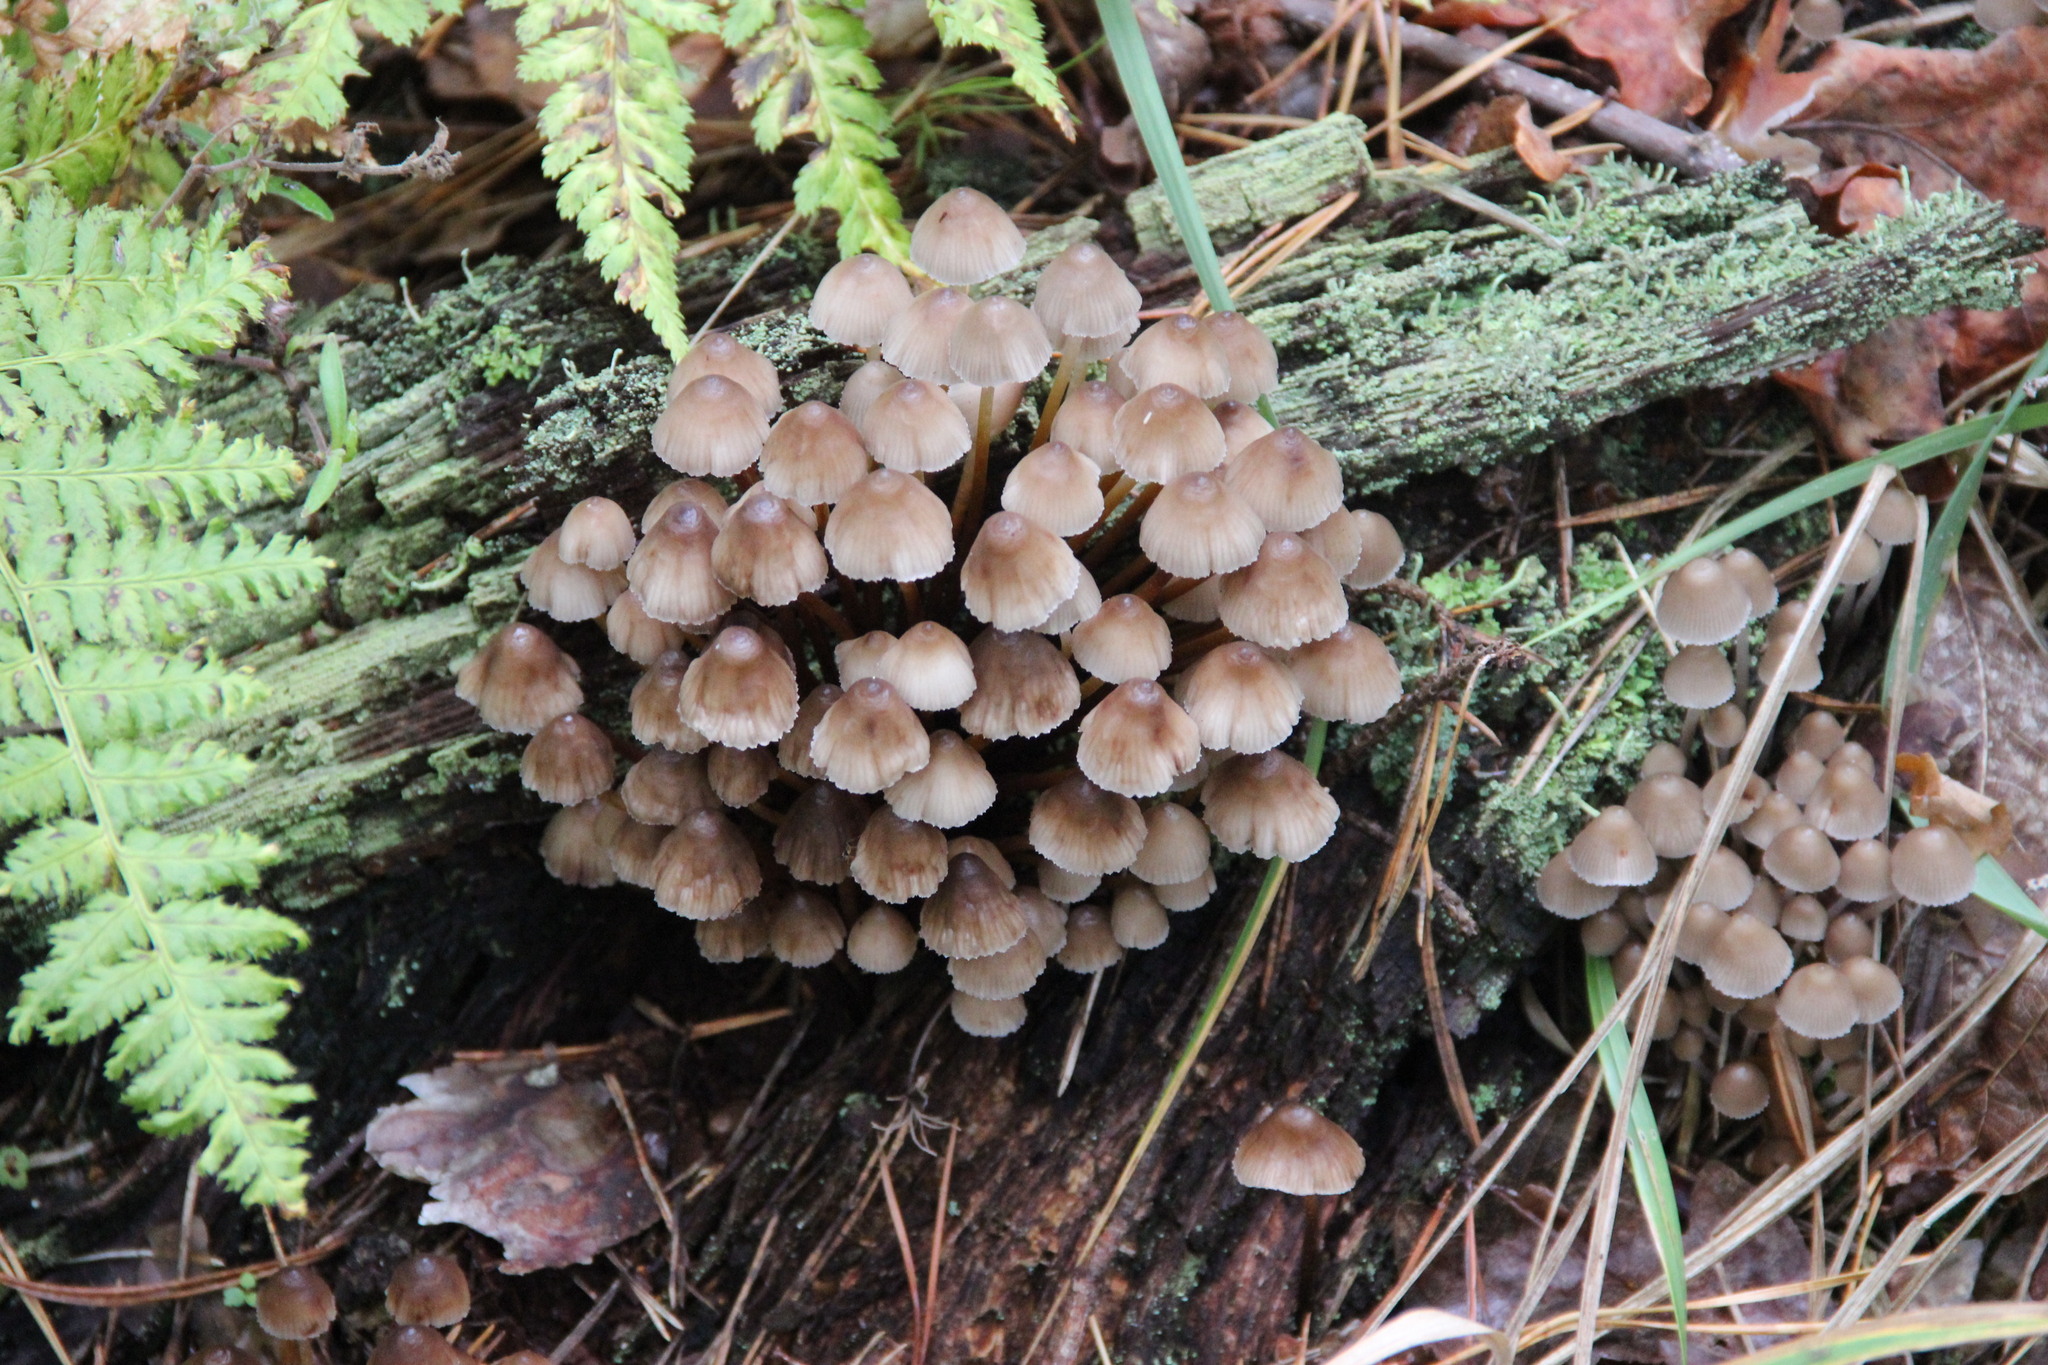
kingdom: Fungi
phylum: Basidiomycota
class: Agaricomycetes
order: Agaricales
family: Mycenaceae
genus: Mycena
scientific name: Mycena inclinata
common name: Clustered bonnet
